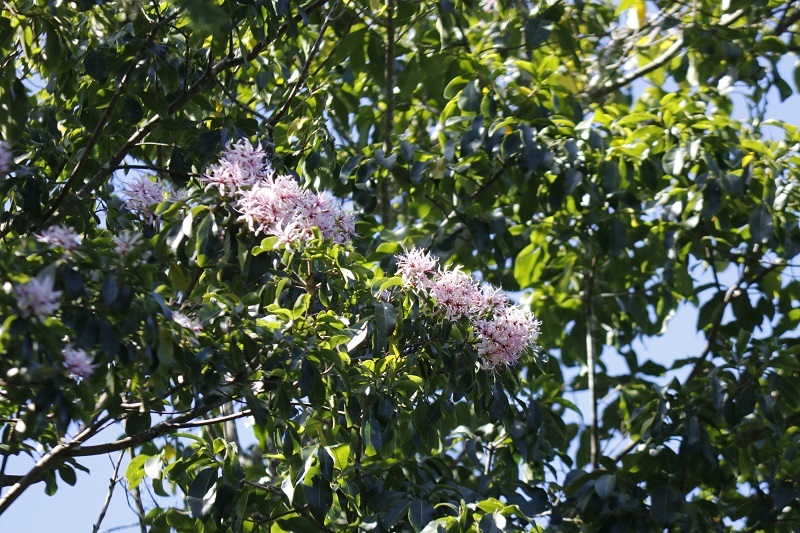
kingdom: Plantae
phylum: Tracheophyta
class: Magnoliopsida
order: Sapindales
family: Rutaceae
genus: Calodendrum
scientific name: Calodendrum capense
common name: Cape chestnut
